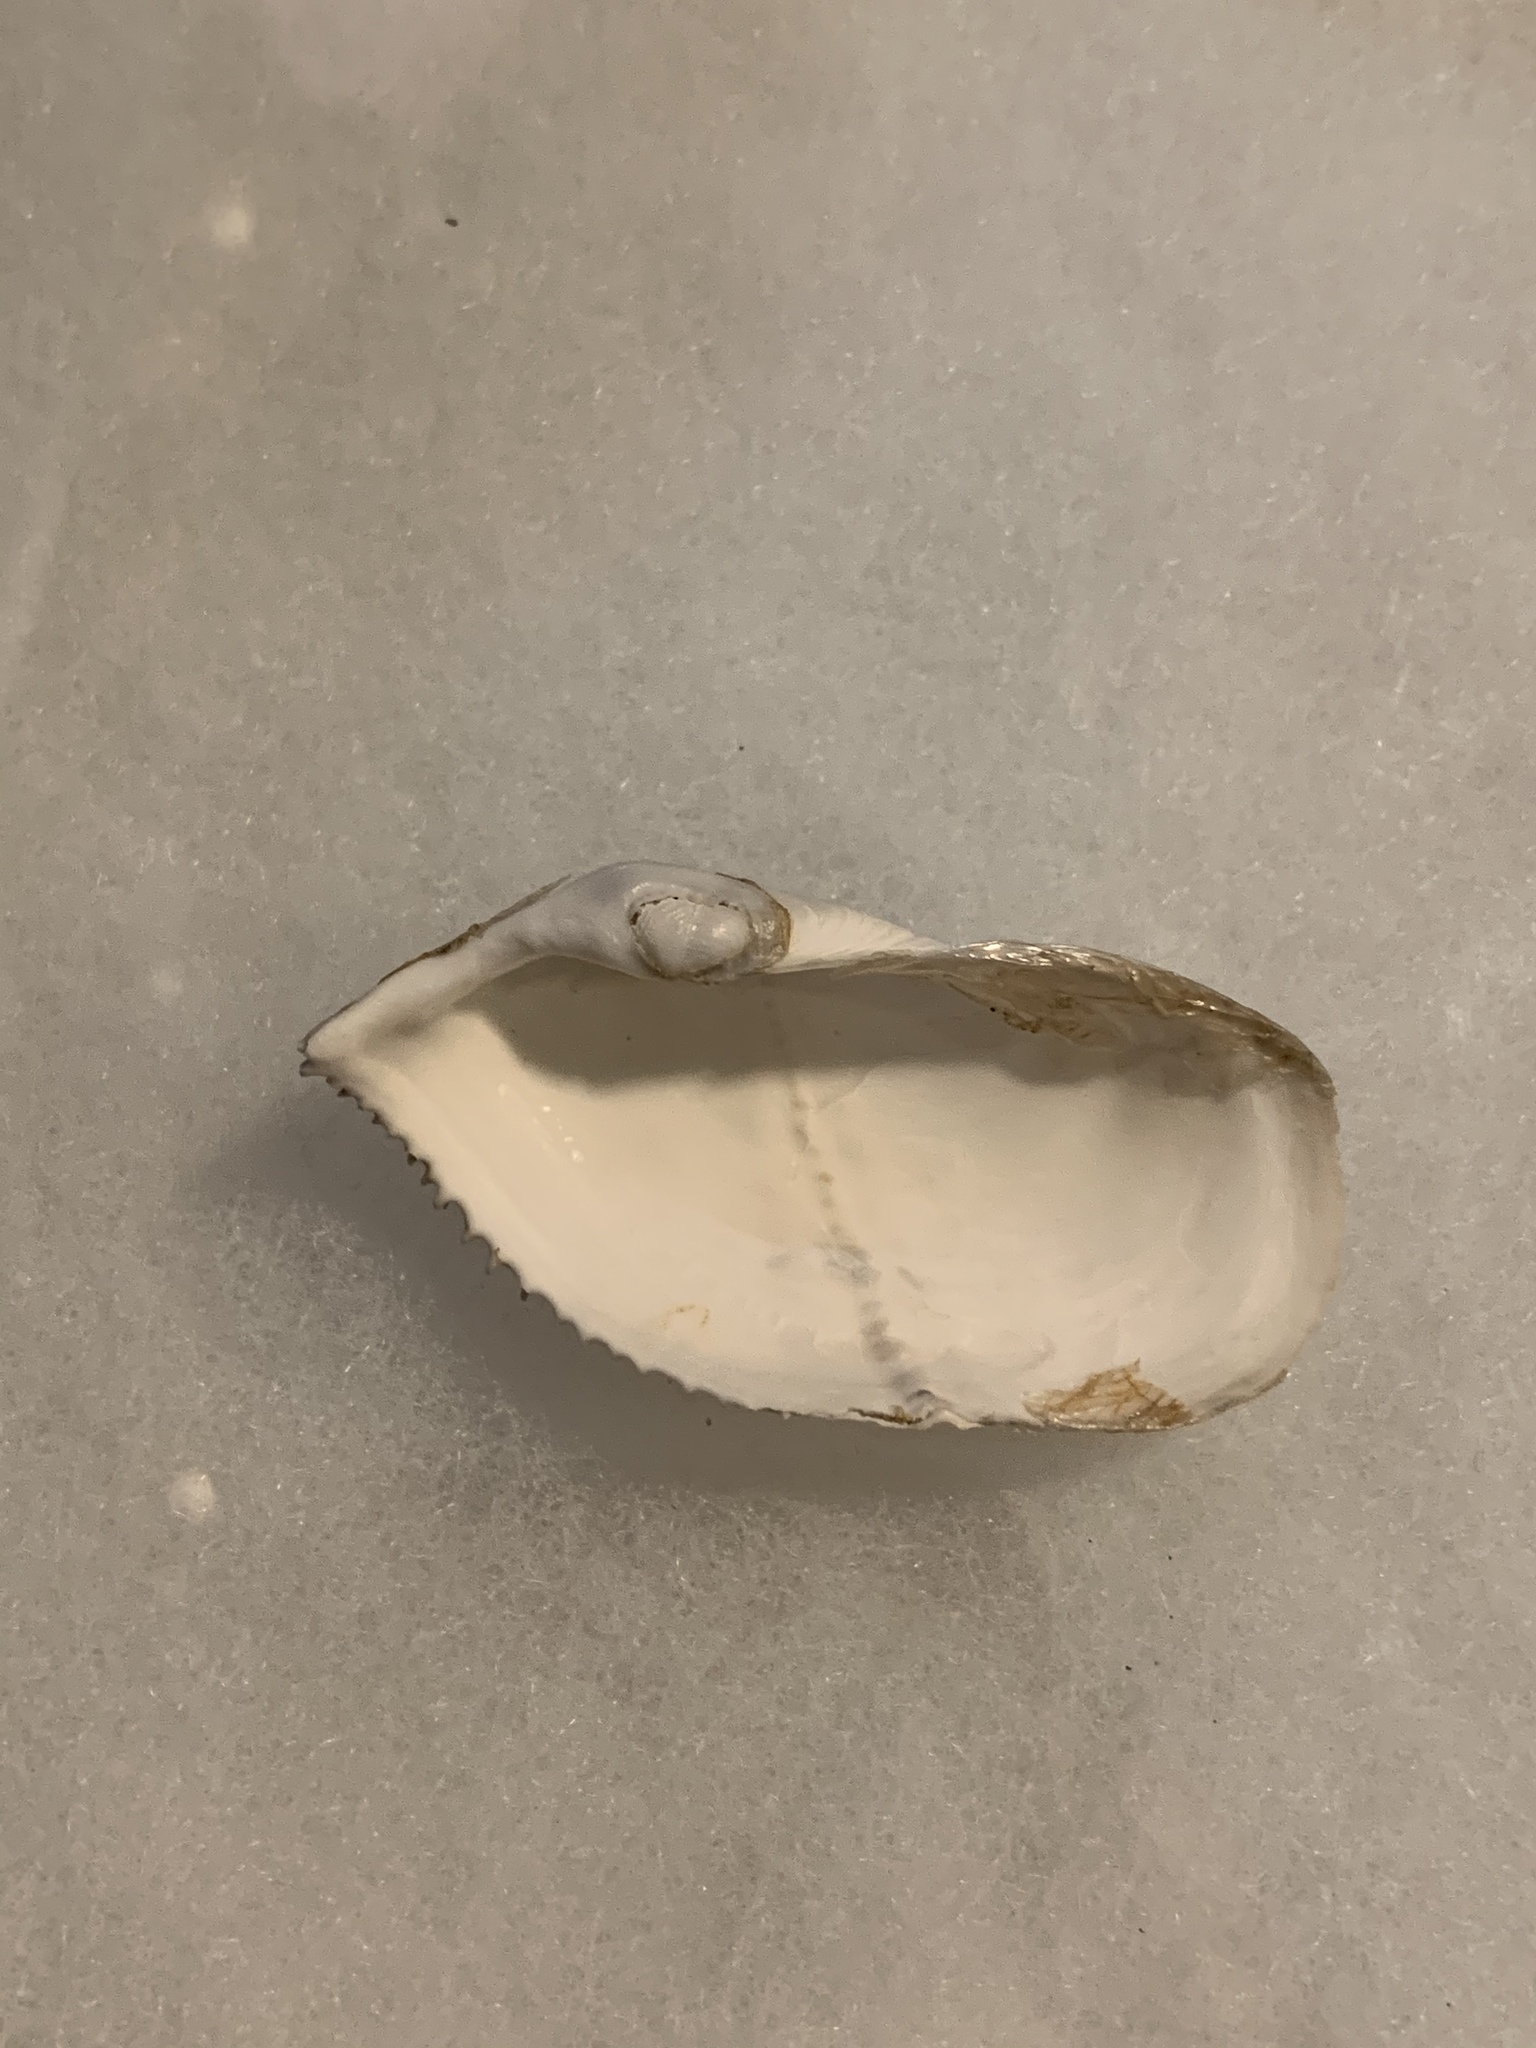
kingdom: Animalia
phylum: Mollusca
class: Bivalvia
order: Myida
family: Pholadidae
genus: Zirfaea
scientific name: Zirfaea pilsbryi
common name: Rough piddock
